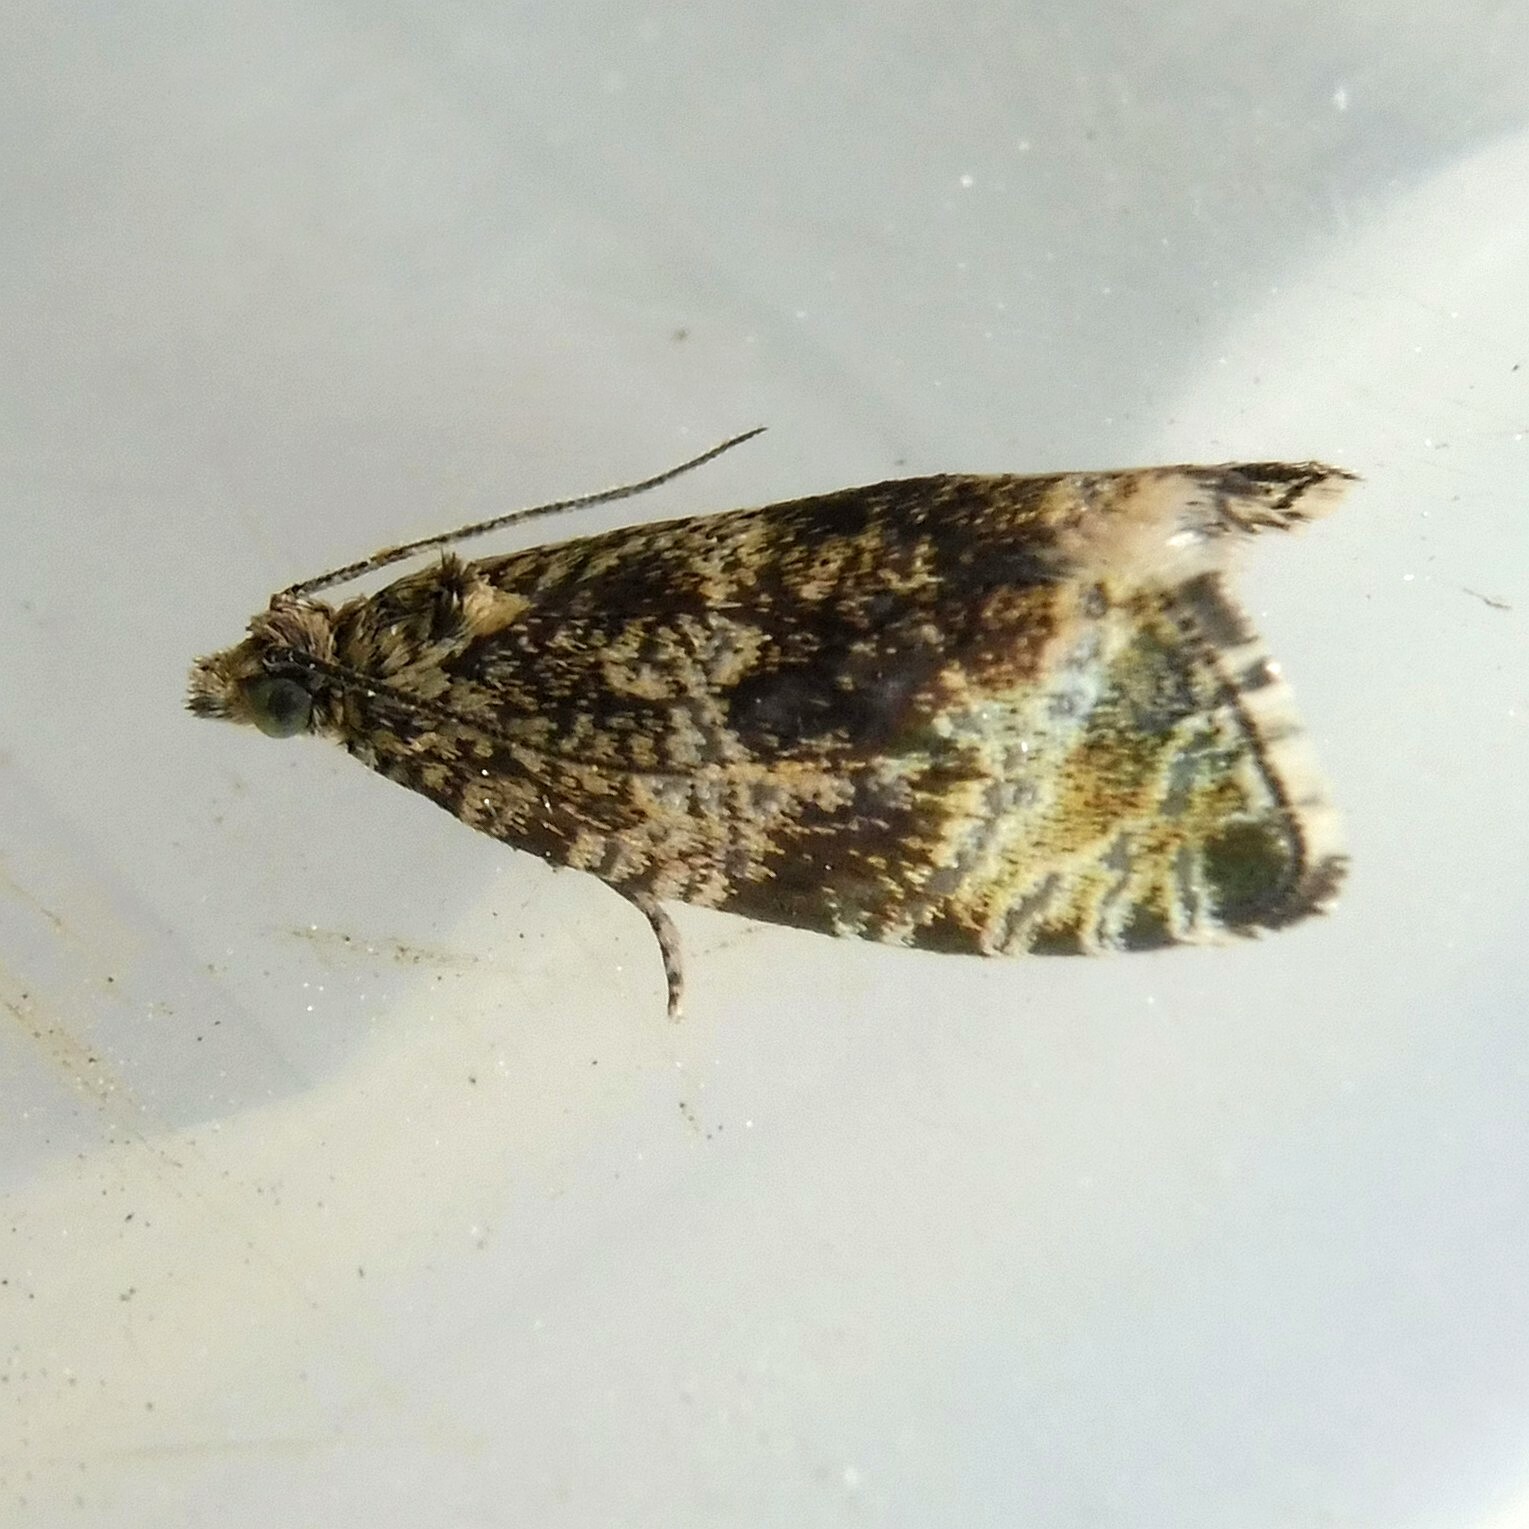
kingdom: Animalia
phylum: Arthropoda
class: Insecta
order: Lepidoptera
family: Tortricidae
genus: Syricoris
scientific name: Syricoris lacunana
